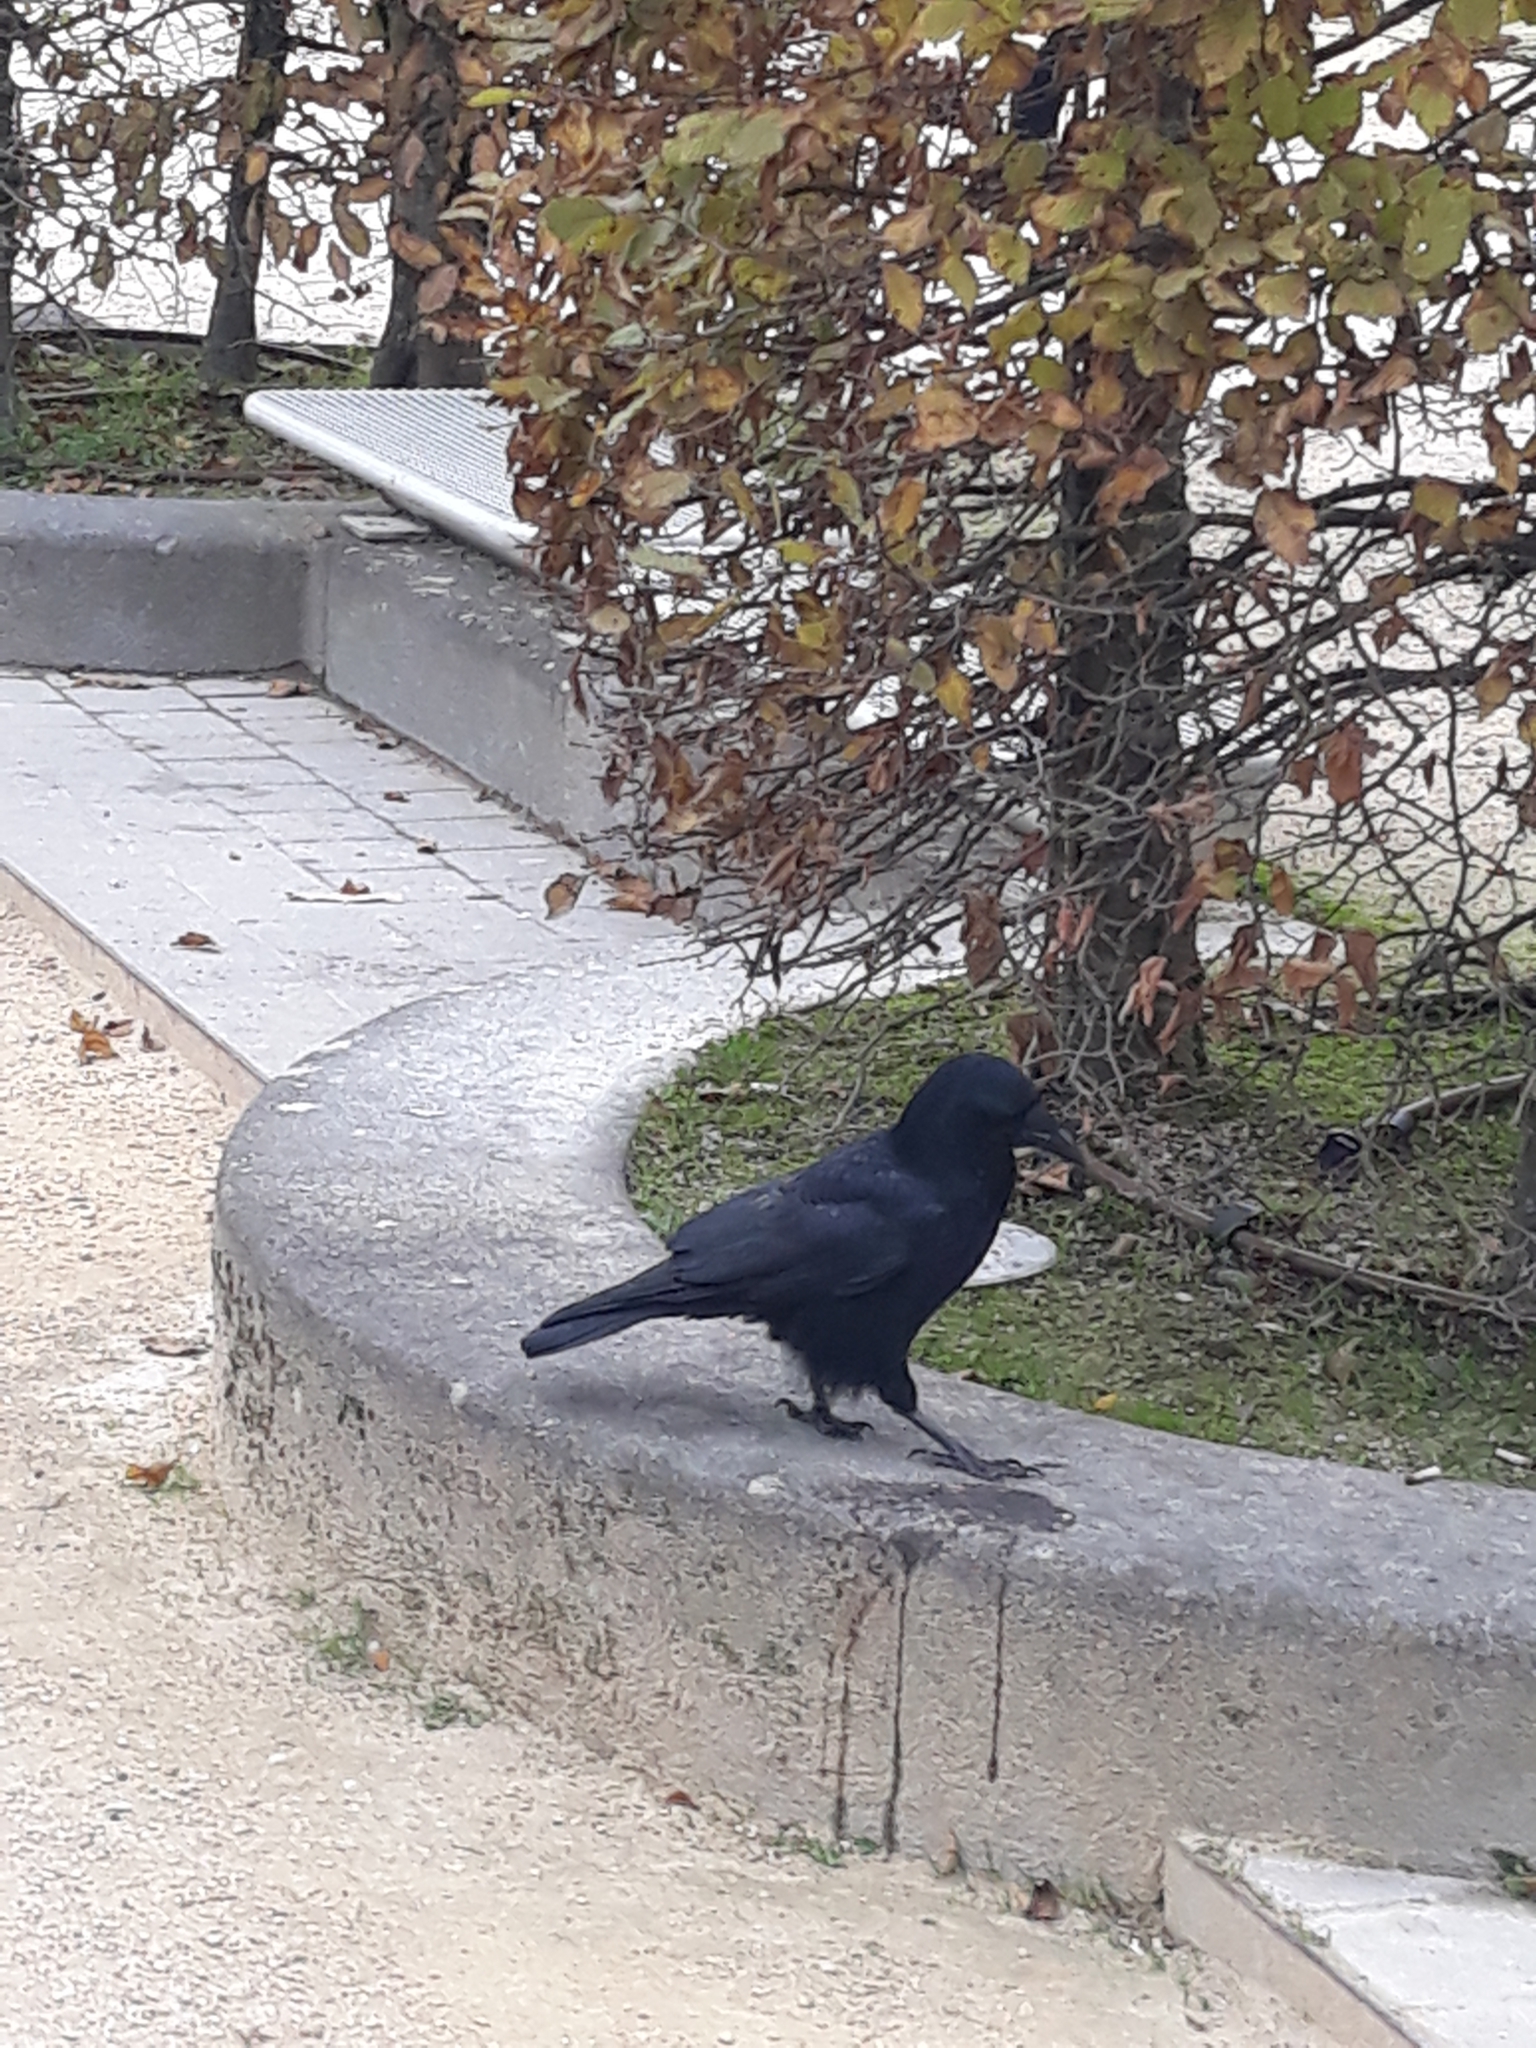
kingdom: Animalia
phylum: Chordata
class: Aves
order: Passeriformes
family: Corvidae
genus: Corvus
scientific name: Corvus corone
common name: Carrion crow
